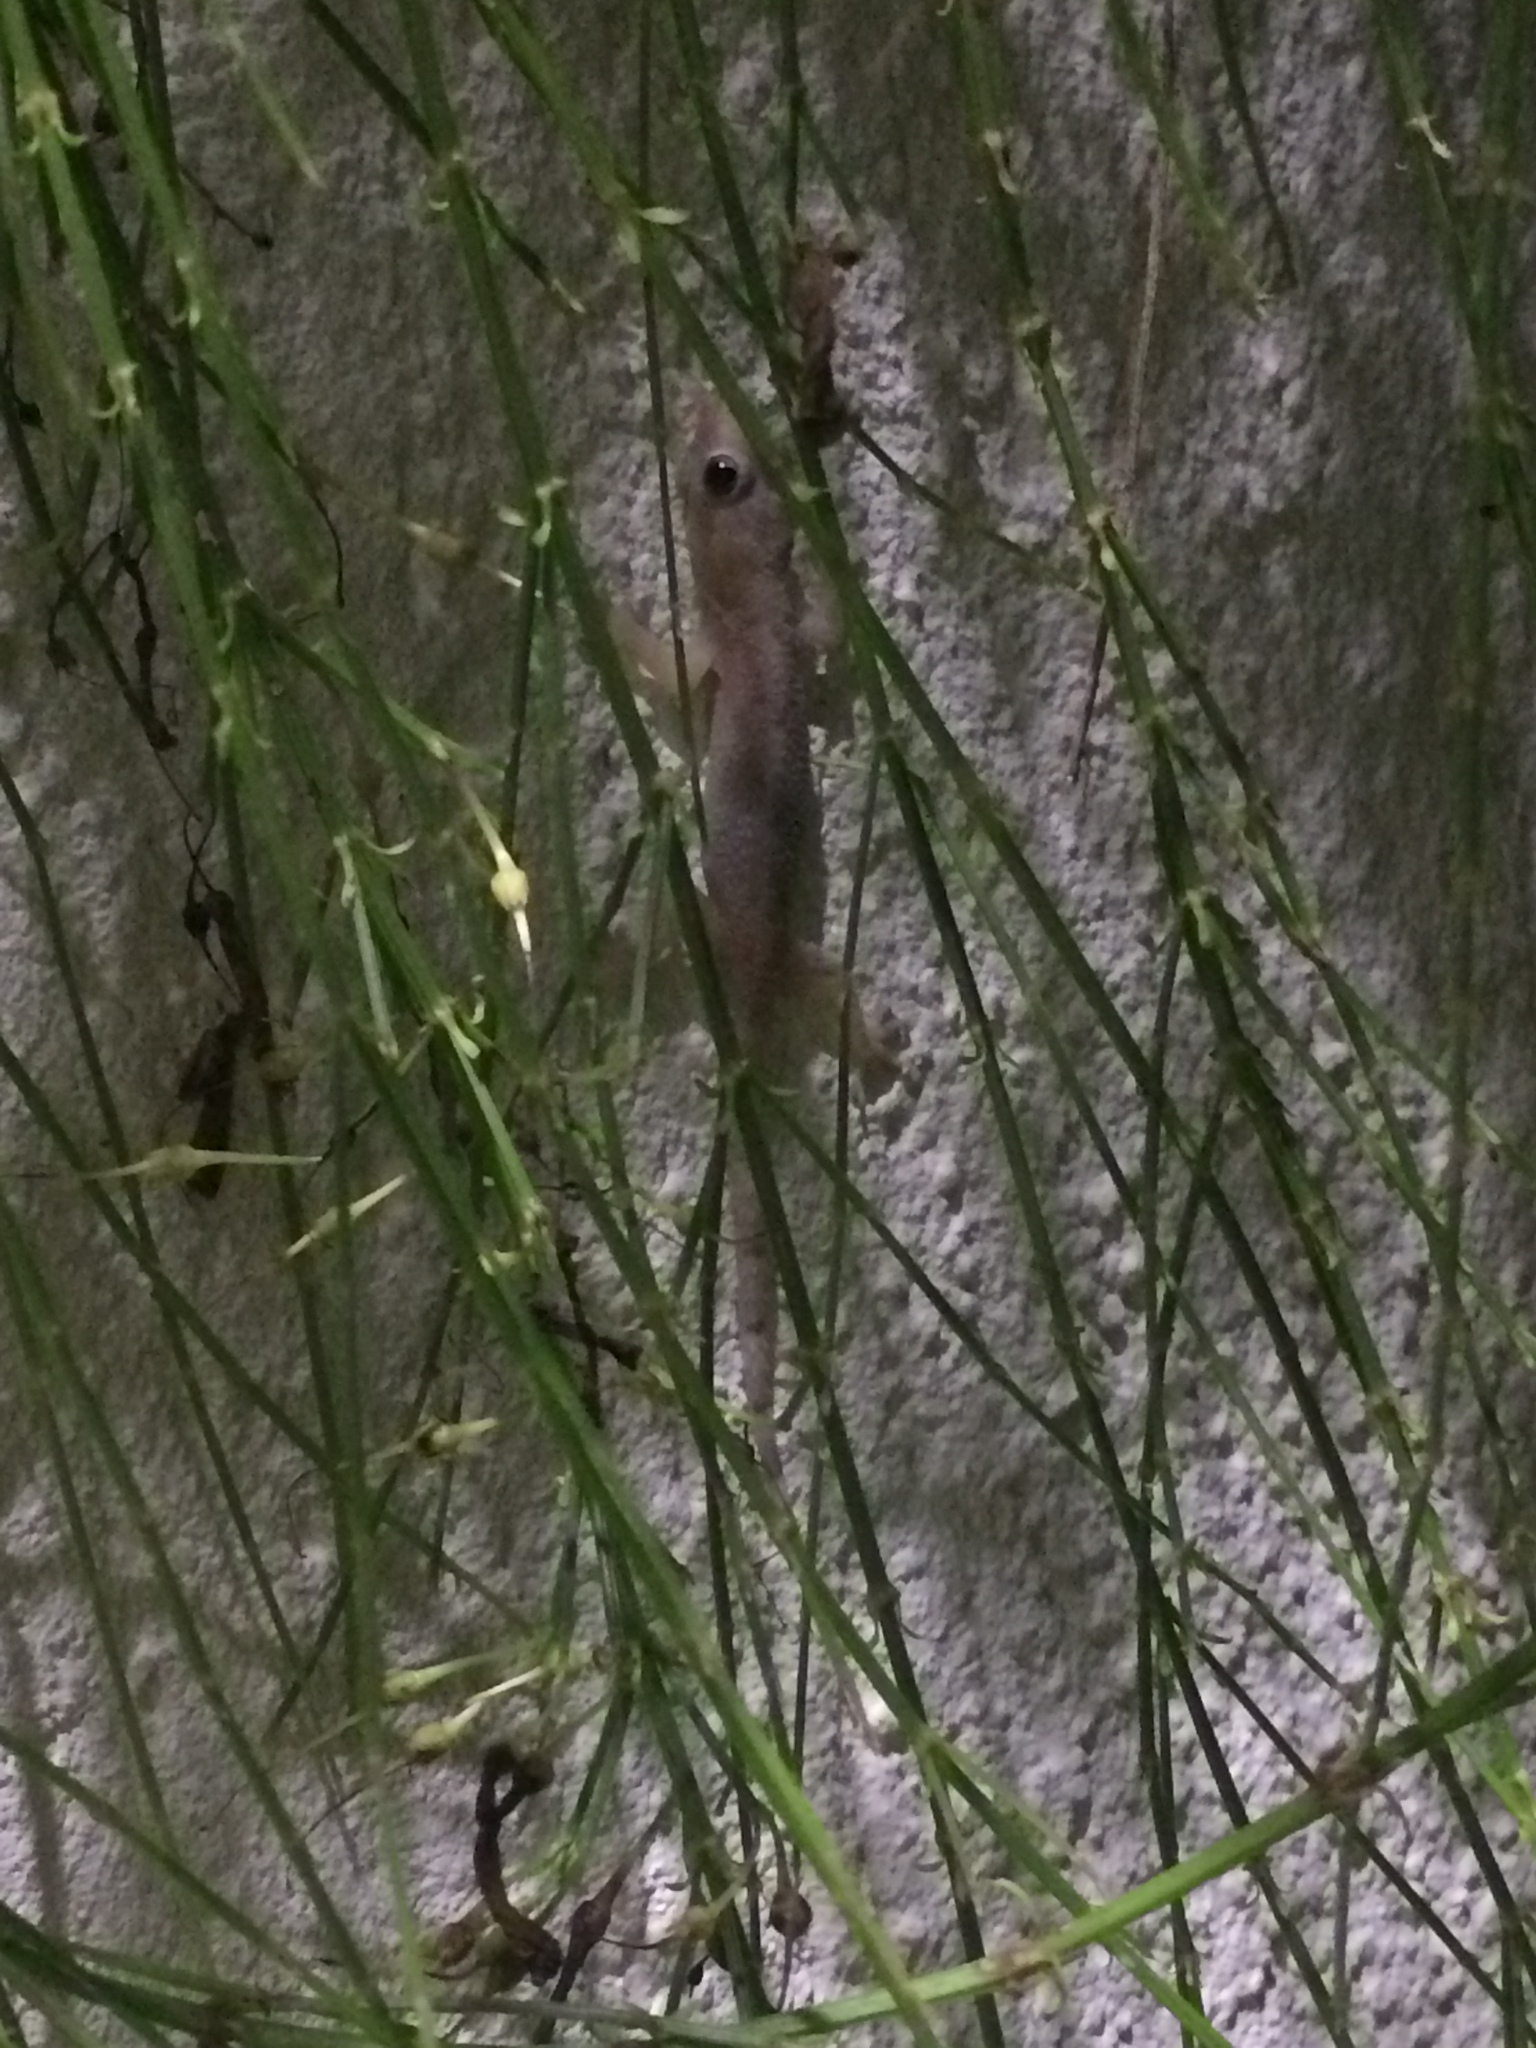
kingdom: Animalia
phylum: Chordata
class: Squamata
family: Gekkonidae
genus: Hemidactylus
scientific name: Hemidactylus mabouia
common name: House gecko
